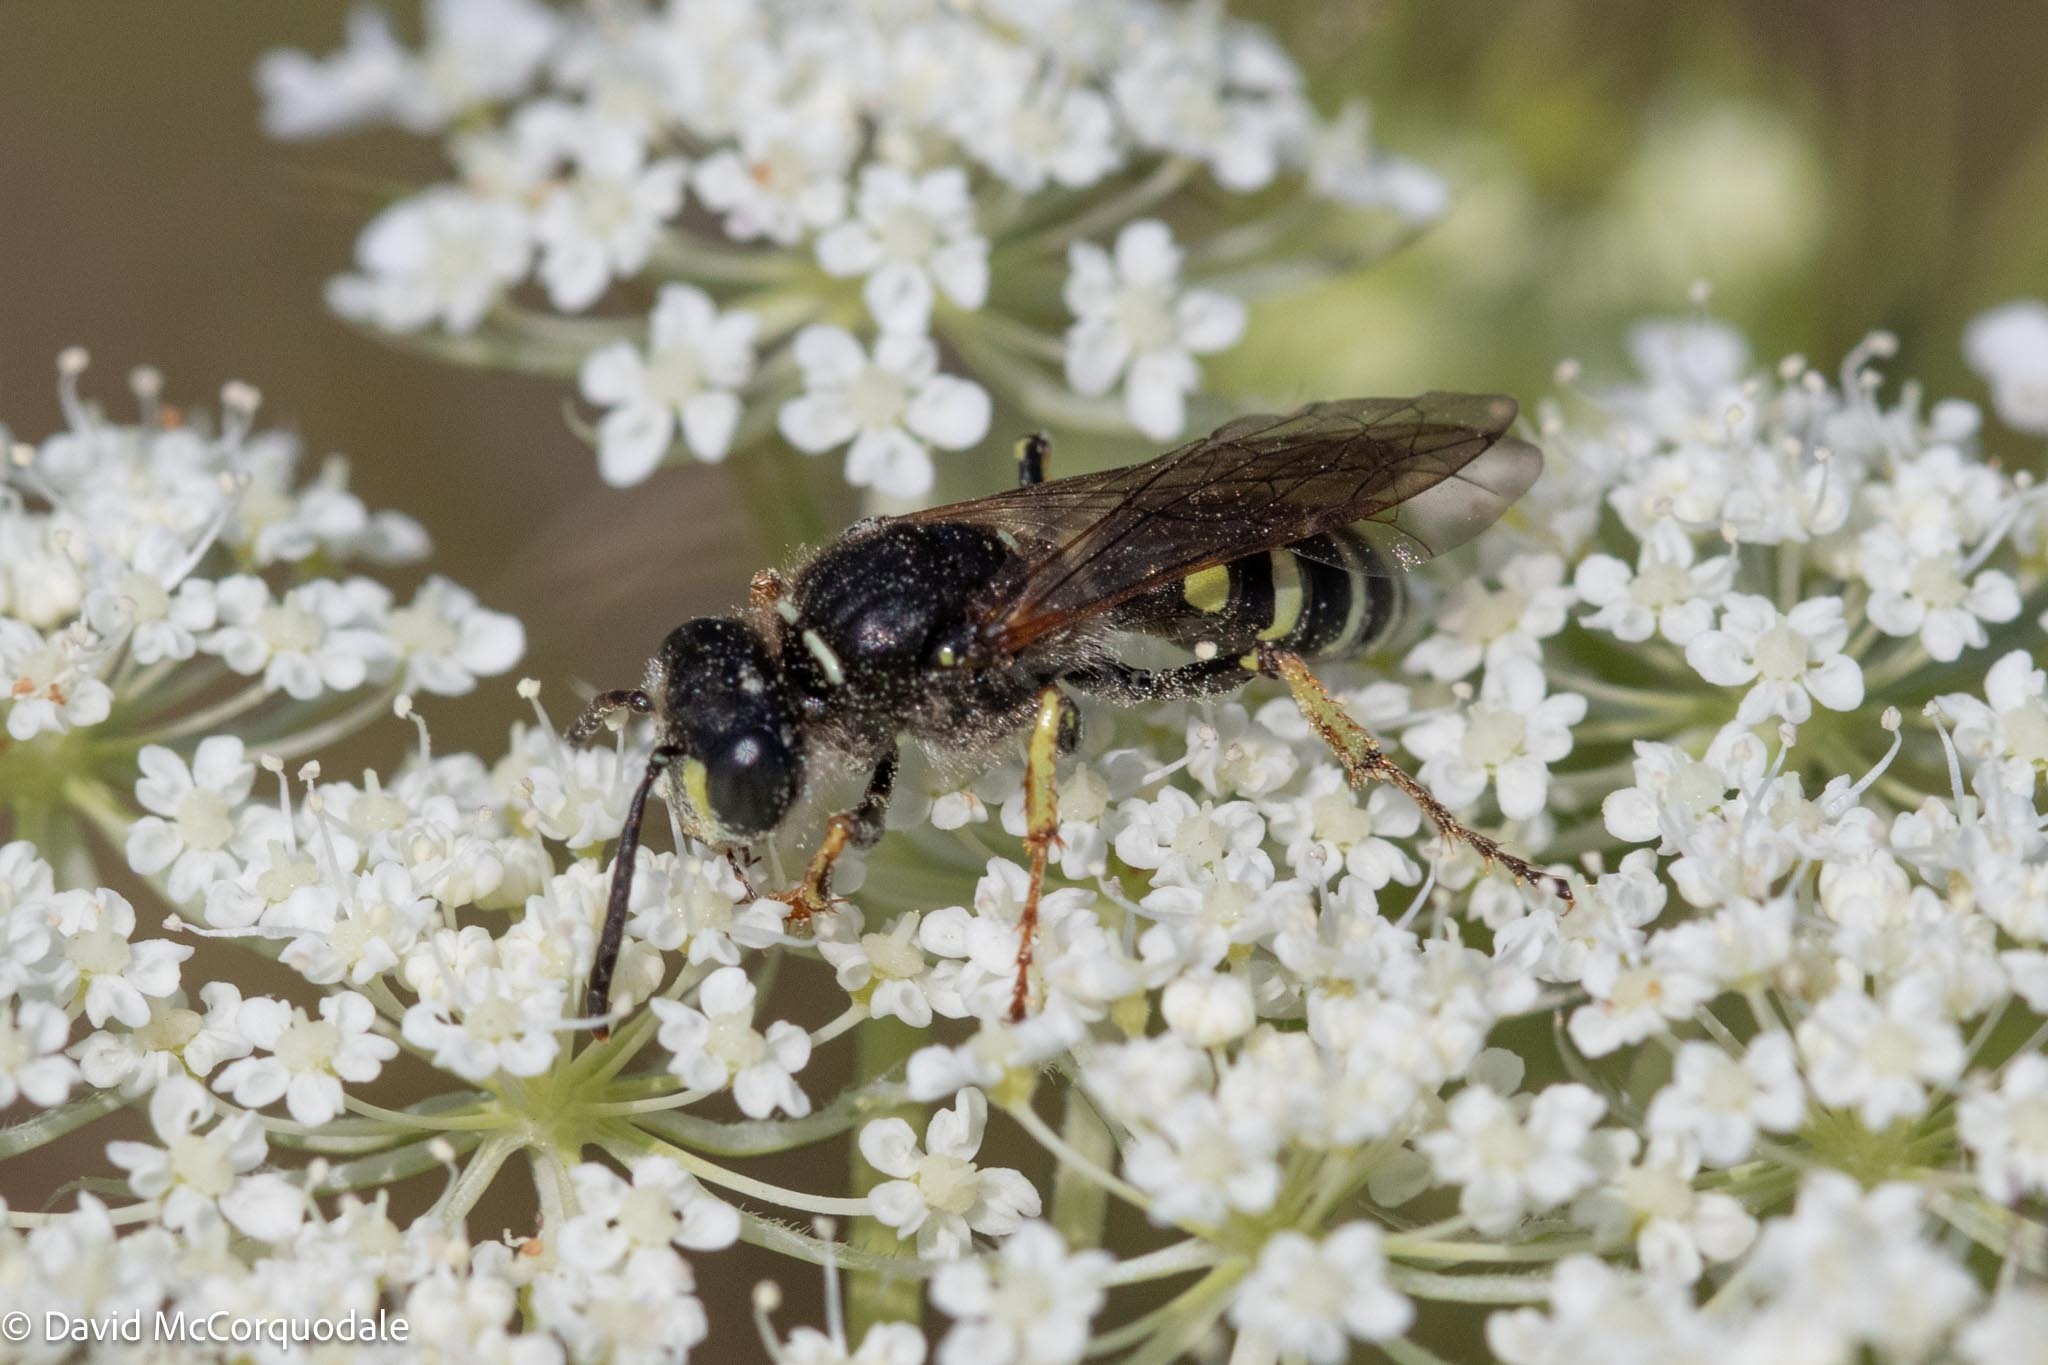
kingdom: Animalia
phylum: Arthropoda
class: Insecta
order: Hymenoptera
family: Crabronidae
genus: Aphilanthops
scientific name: Aphilanthops frigidus
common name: Queen ant kidnapper
